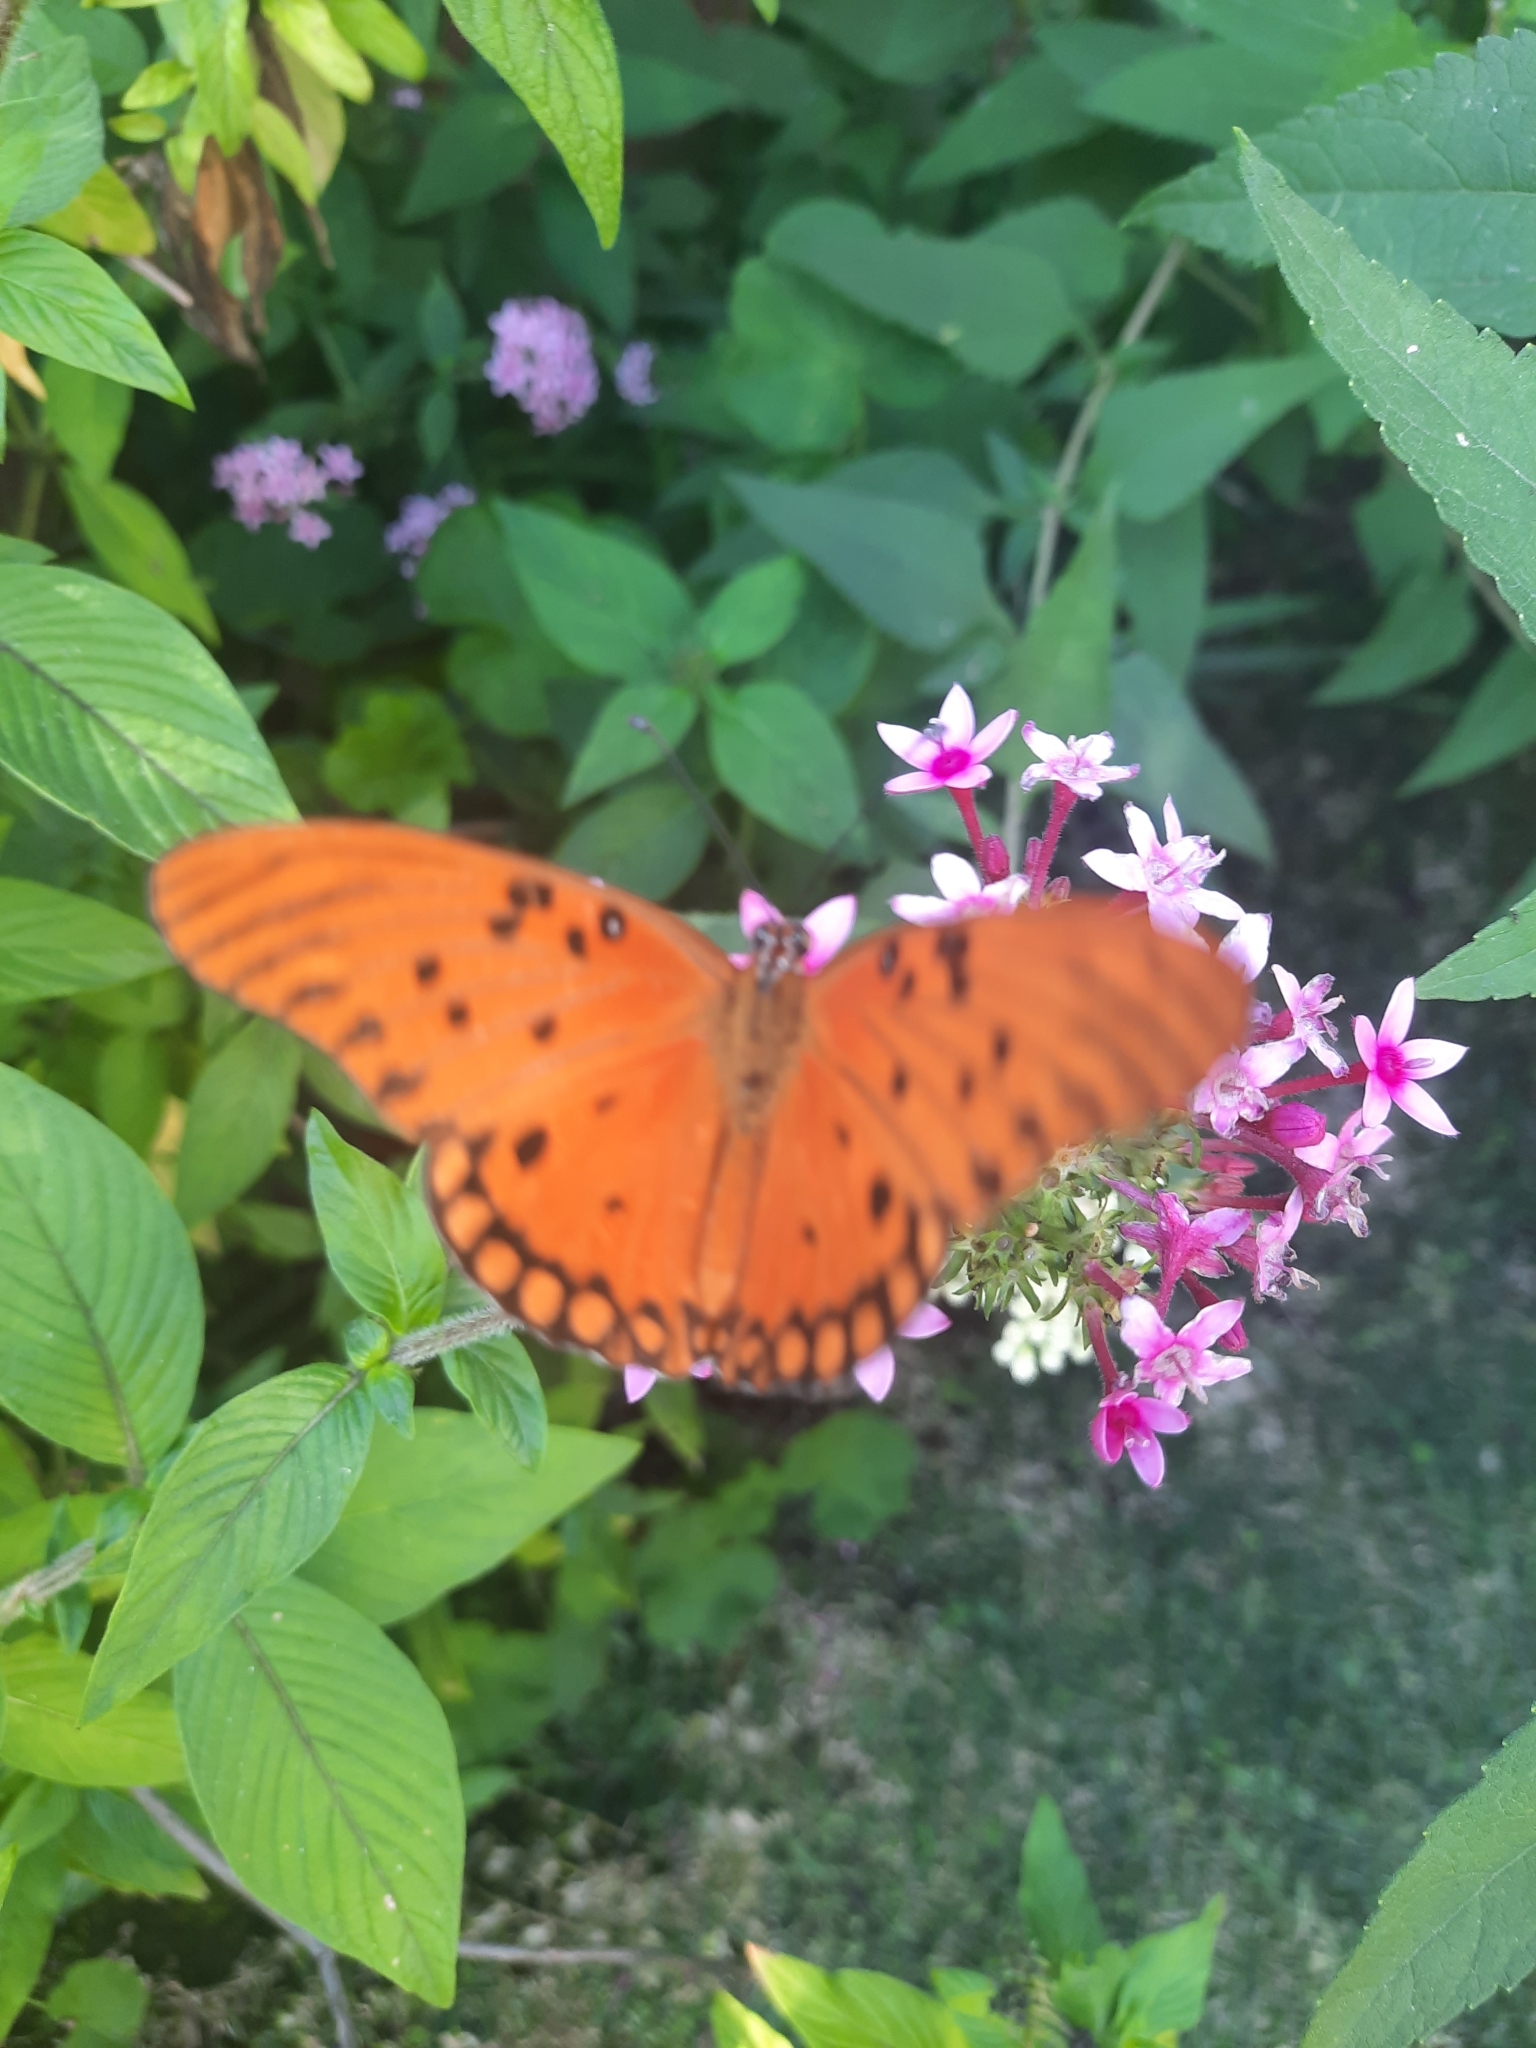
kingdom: Animalia
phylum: Arthropoda
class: Insecta
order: Lepidoptera
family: Nymphalidae
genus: Dione
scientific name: Dione vanillae
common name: Gulf fritillary
